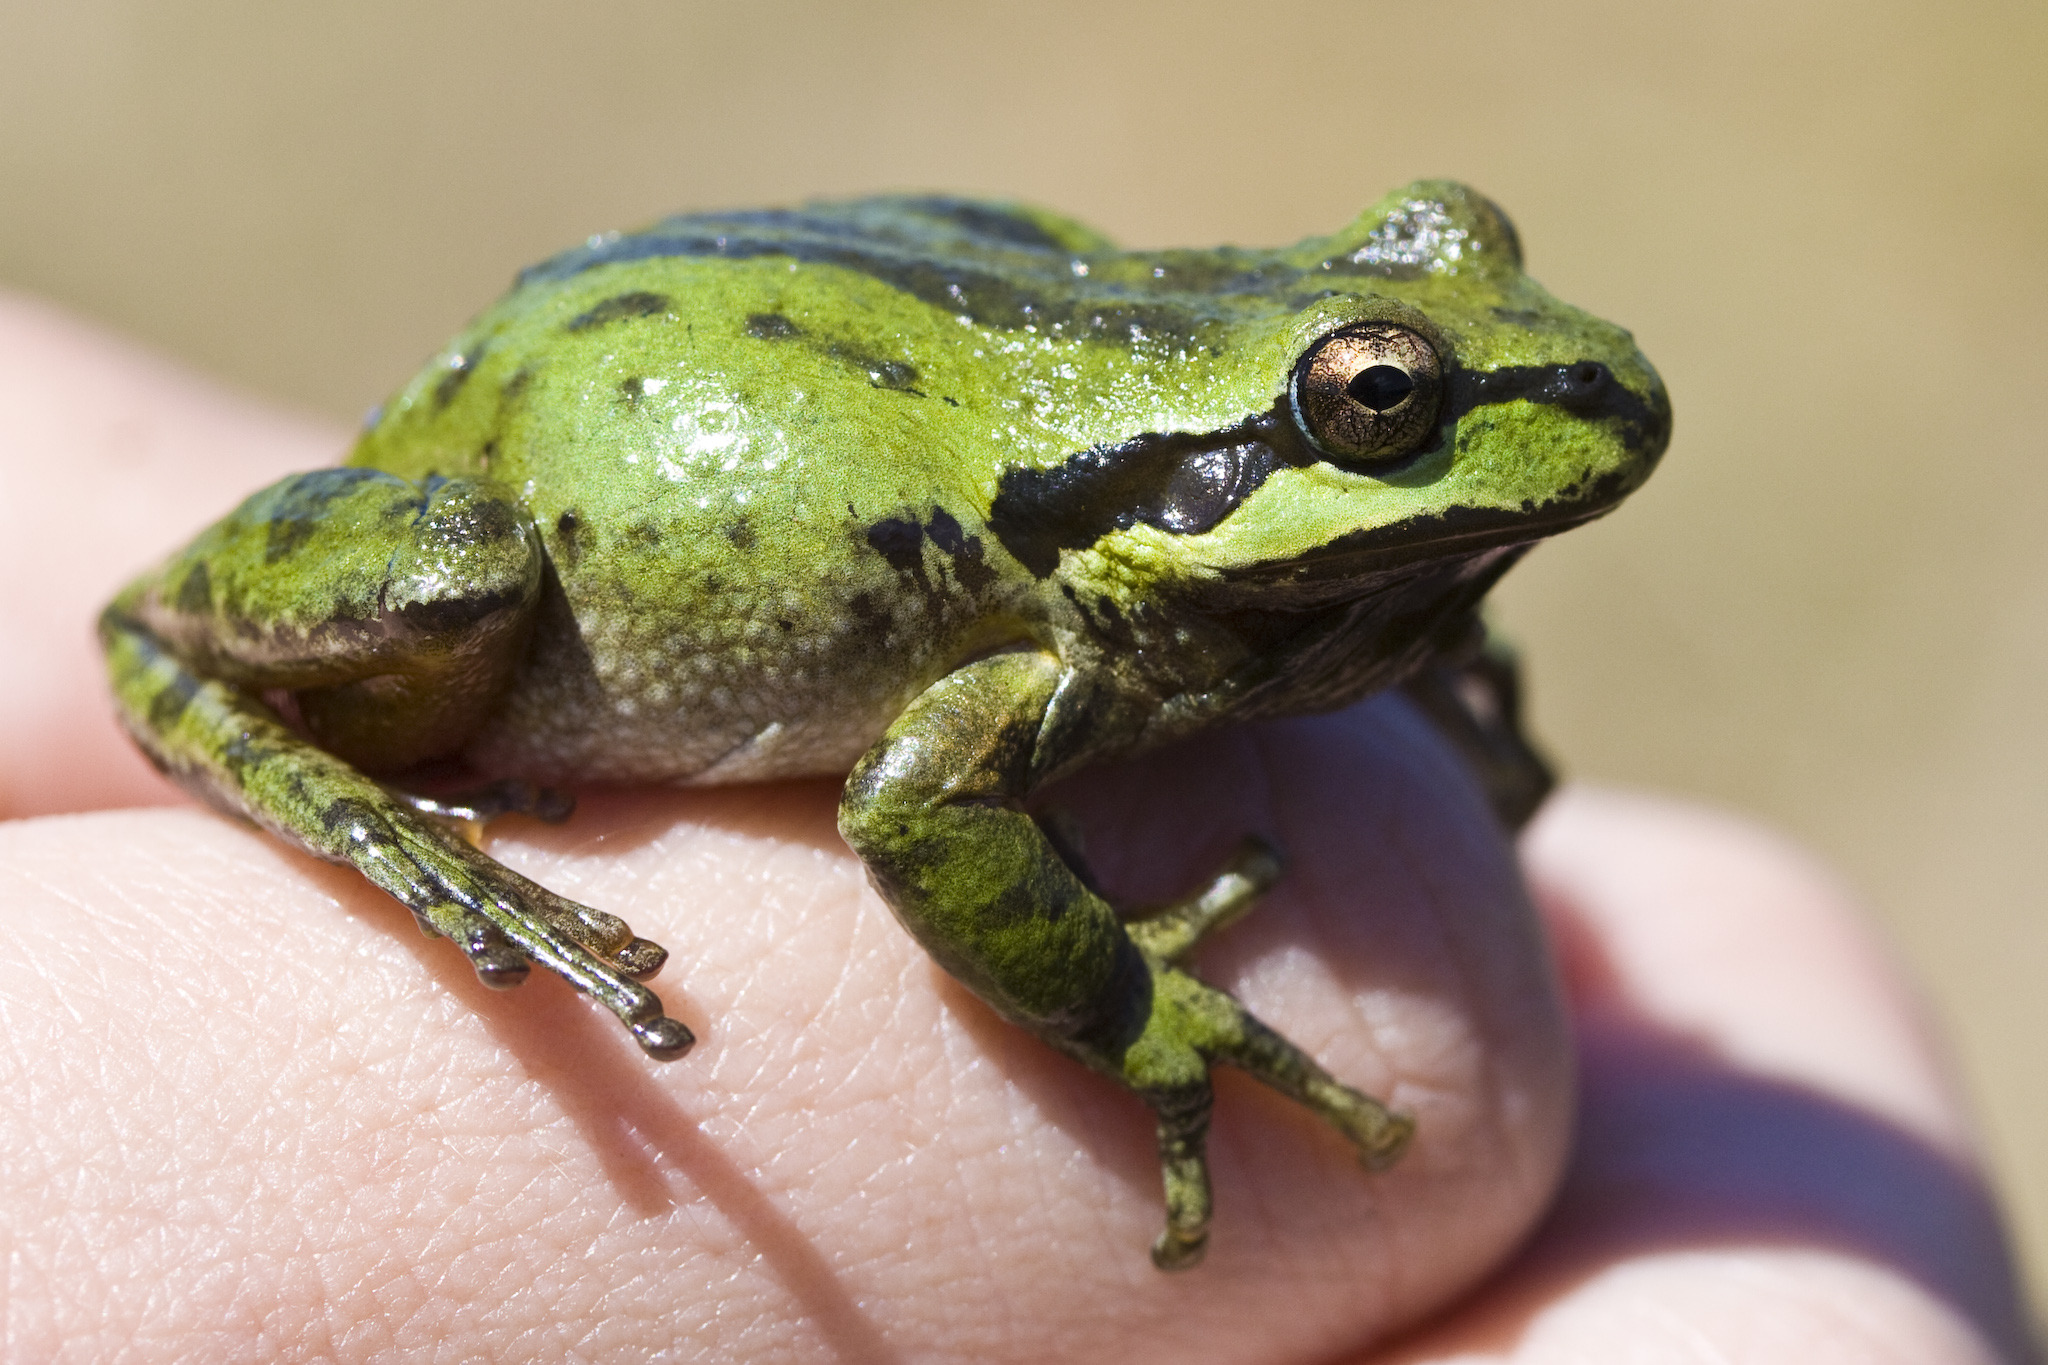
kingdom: Animalia
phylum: Chordata
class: Amphibia
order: Anura
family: Hylidae
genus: Pseudacris
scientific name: Pseudacris regilla
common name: Pacific chorus frog
